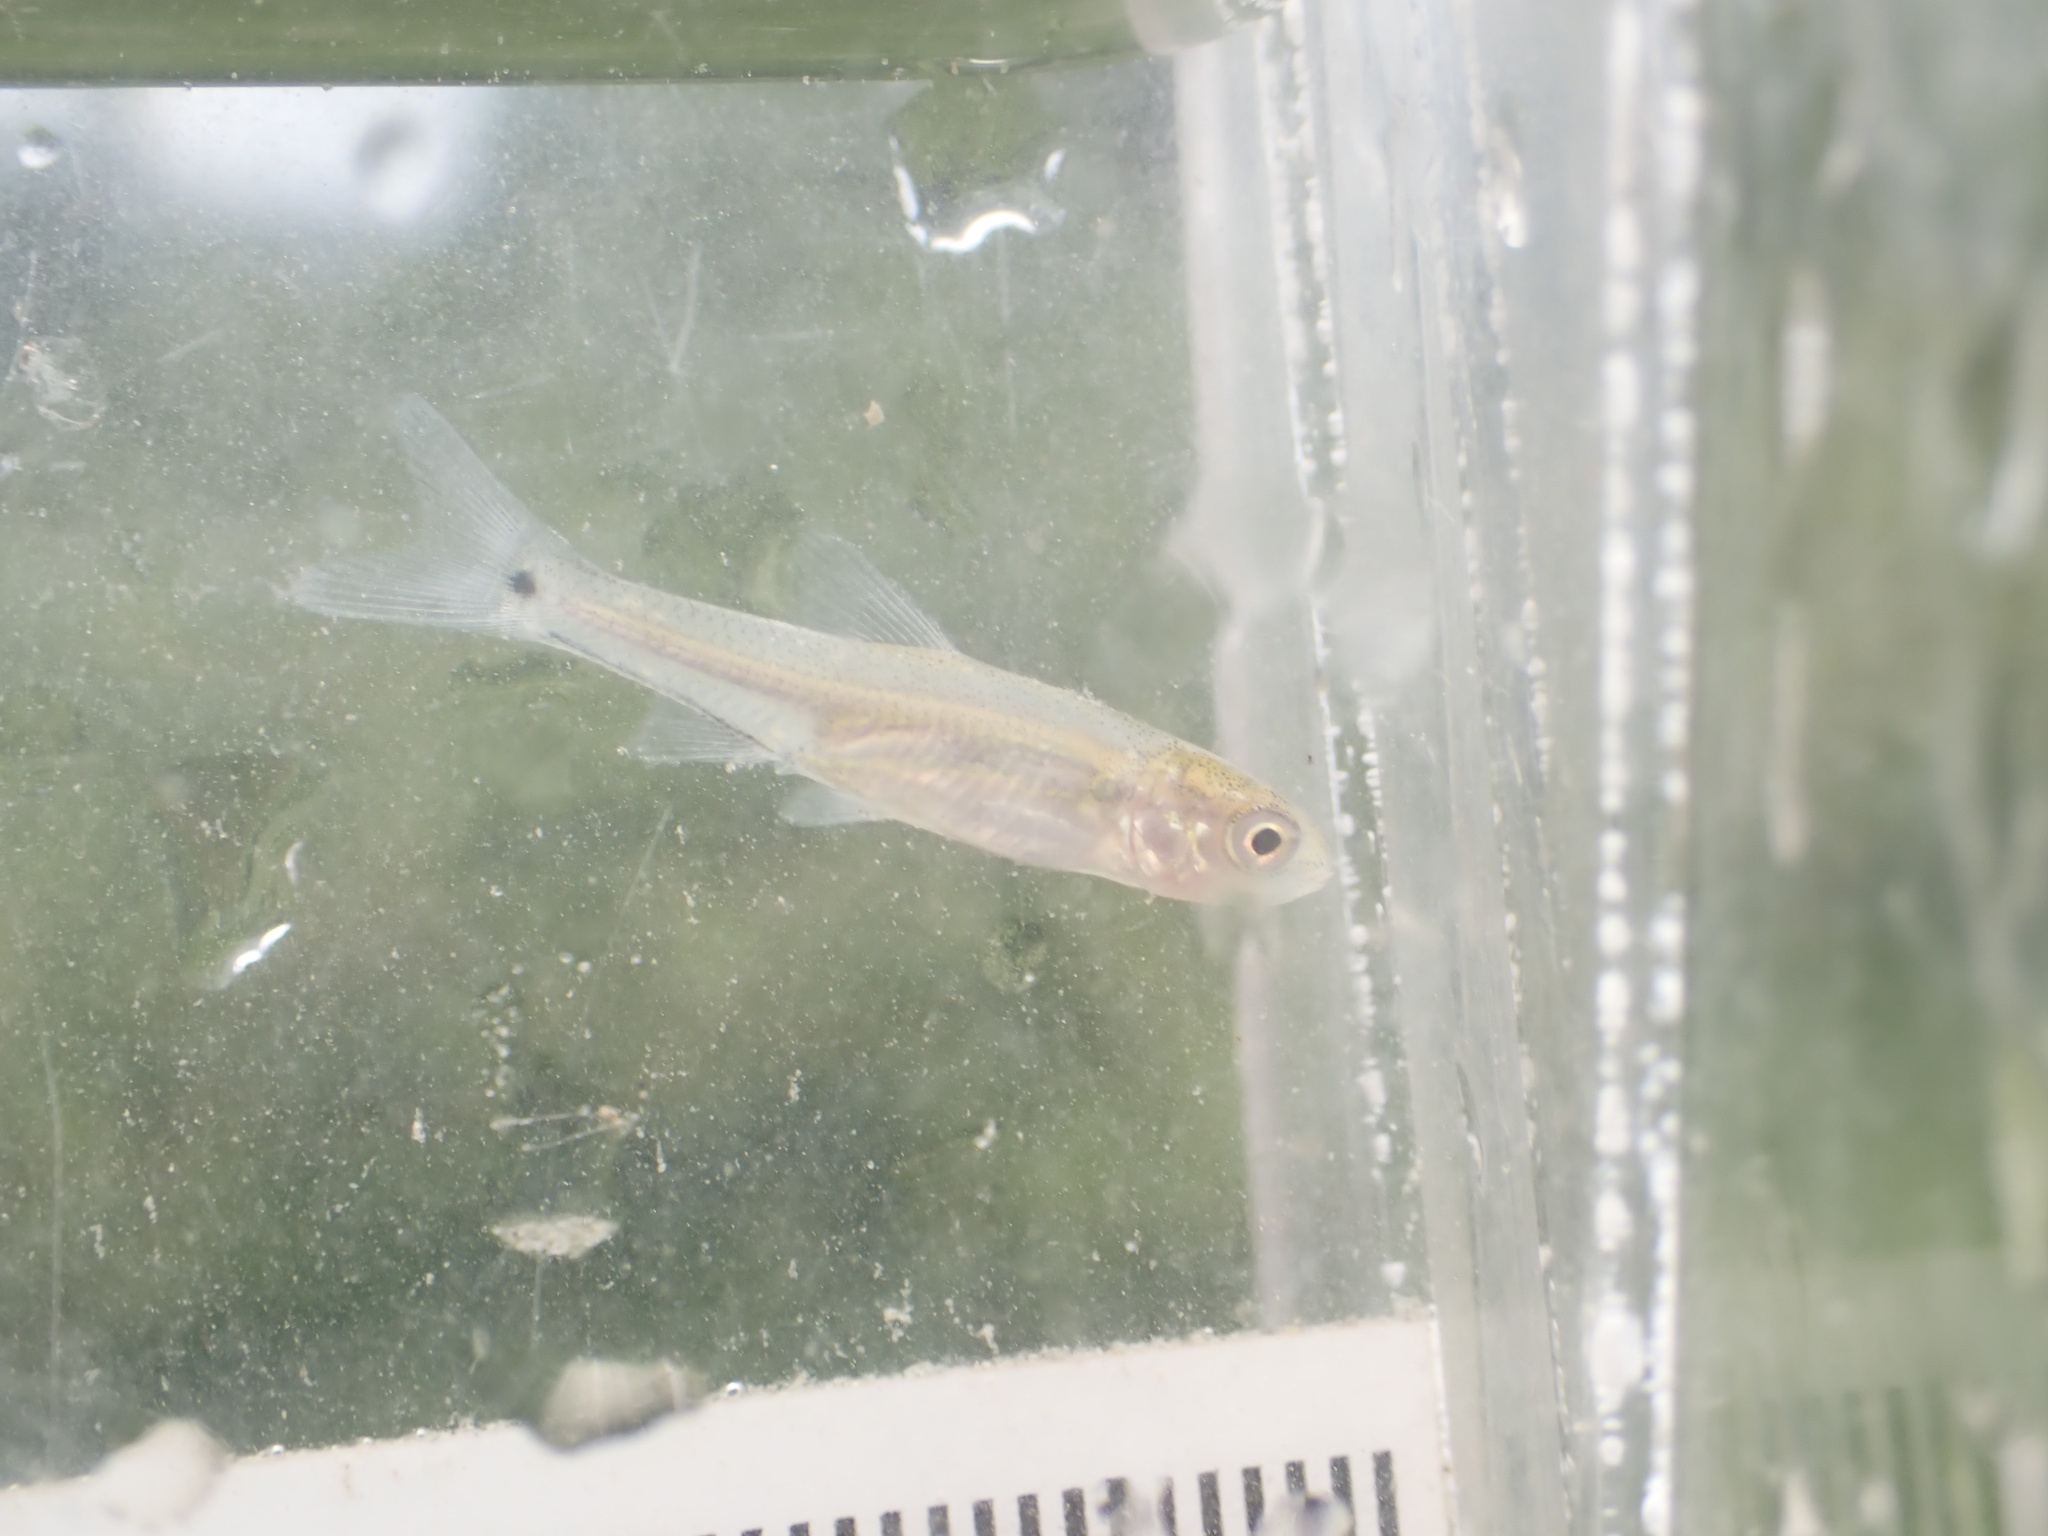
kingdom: Animalia
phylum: Chordata
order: Cypriniformes
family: Cyprinidae
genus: Notropis
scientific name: Notropis
